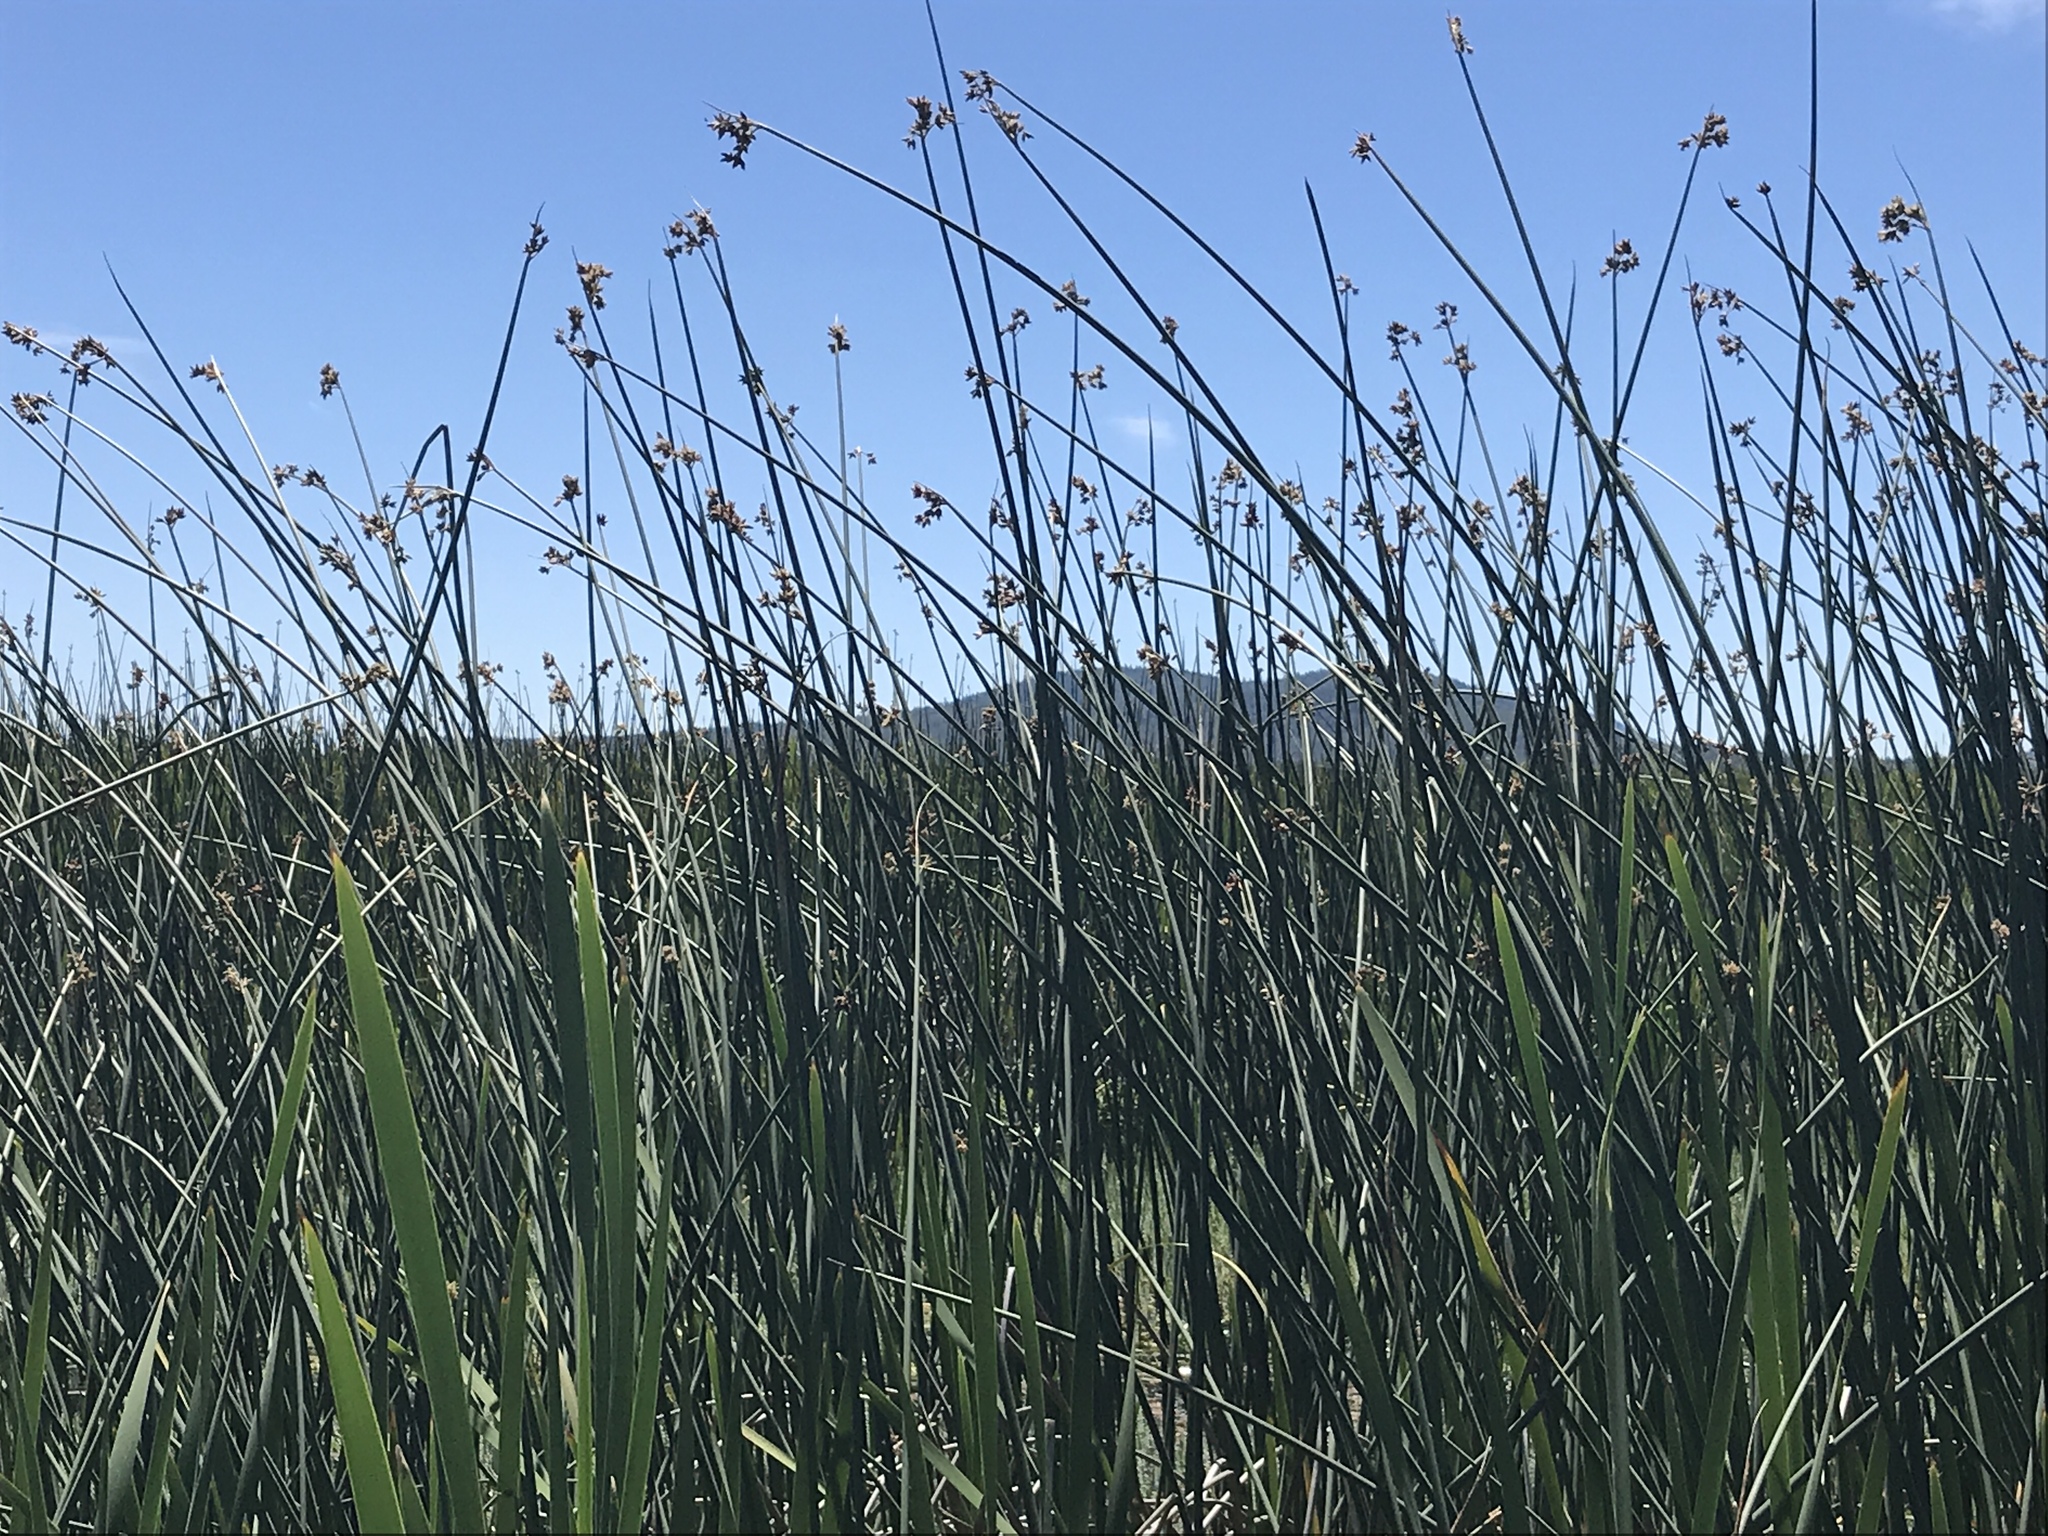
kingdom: Plantae
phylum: Tracheophyta
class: Liliopsida
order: Poales
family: Cyperaceae
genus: Schoenoplectus
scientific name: Schoenoplectus acutus
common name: Hardstem bulrush
